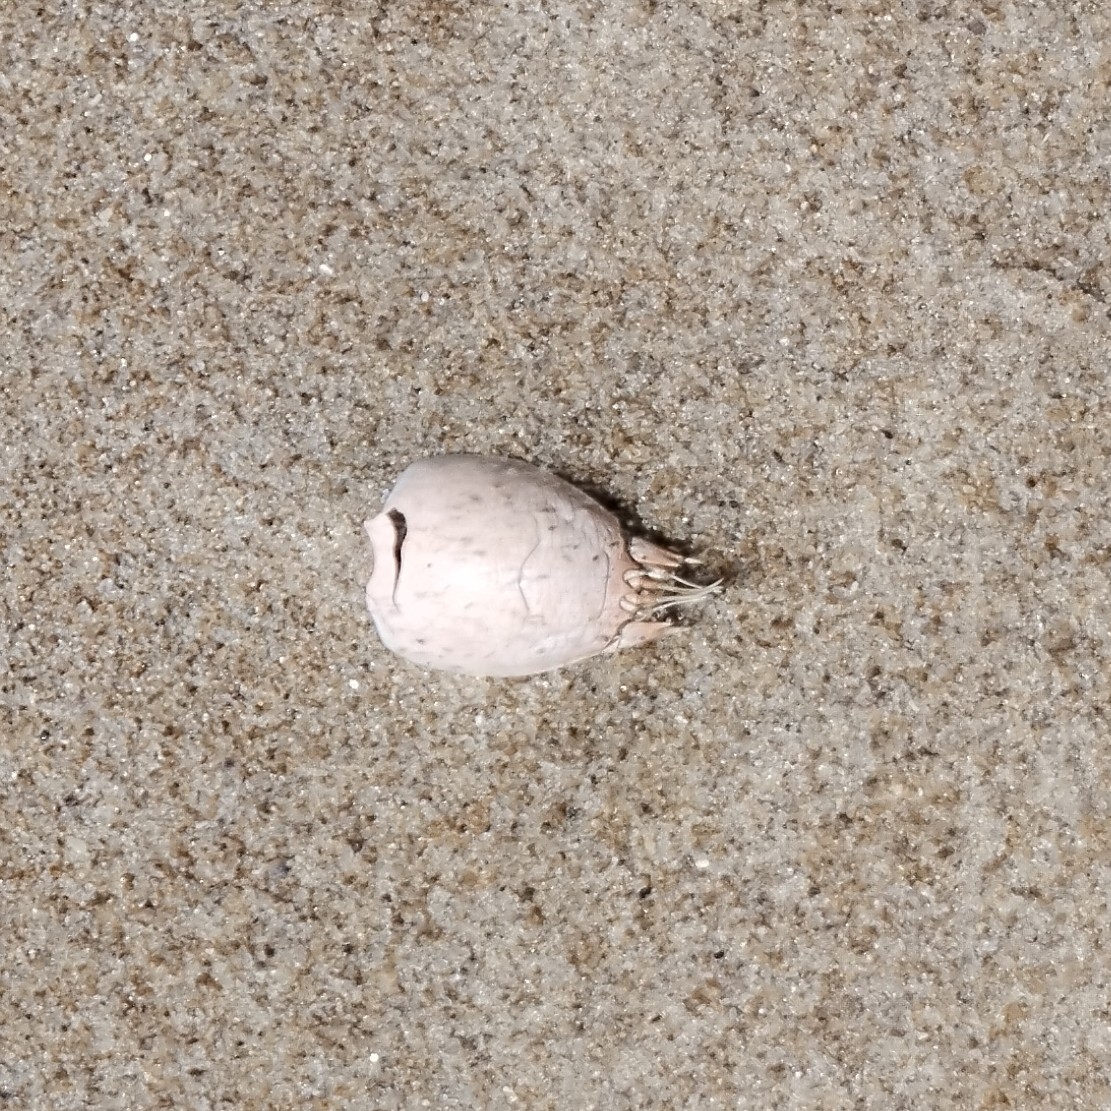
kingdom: Animalia
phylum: Arthropoda
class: Malacostraca
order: Decapoda
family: Hippidae
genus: Emerita
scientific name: Emerita brasiliensis
